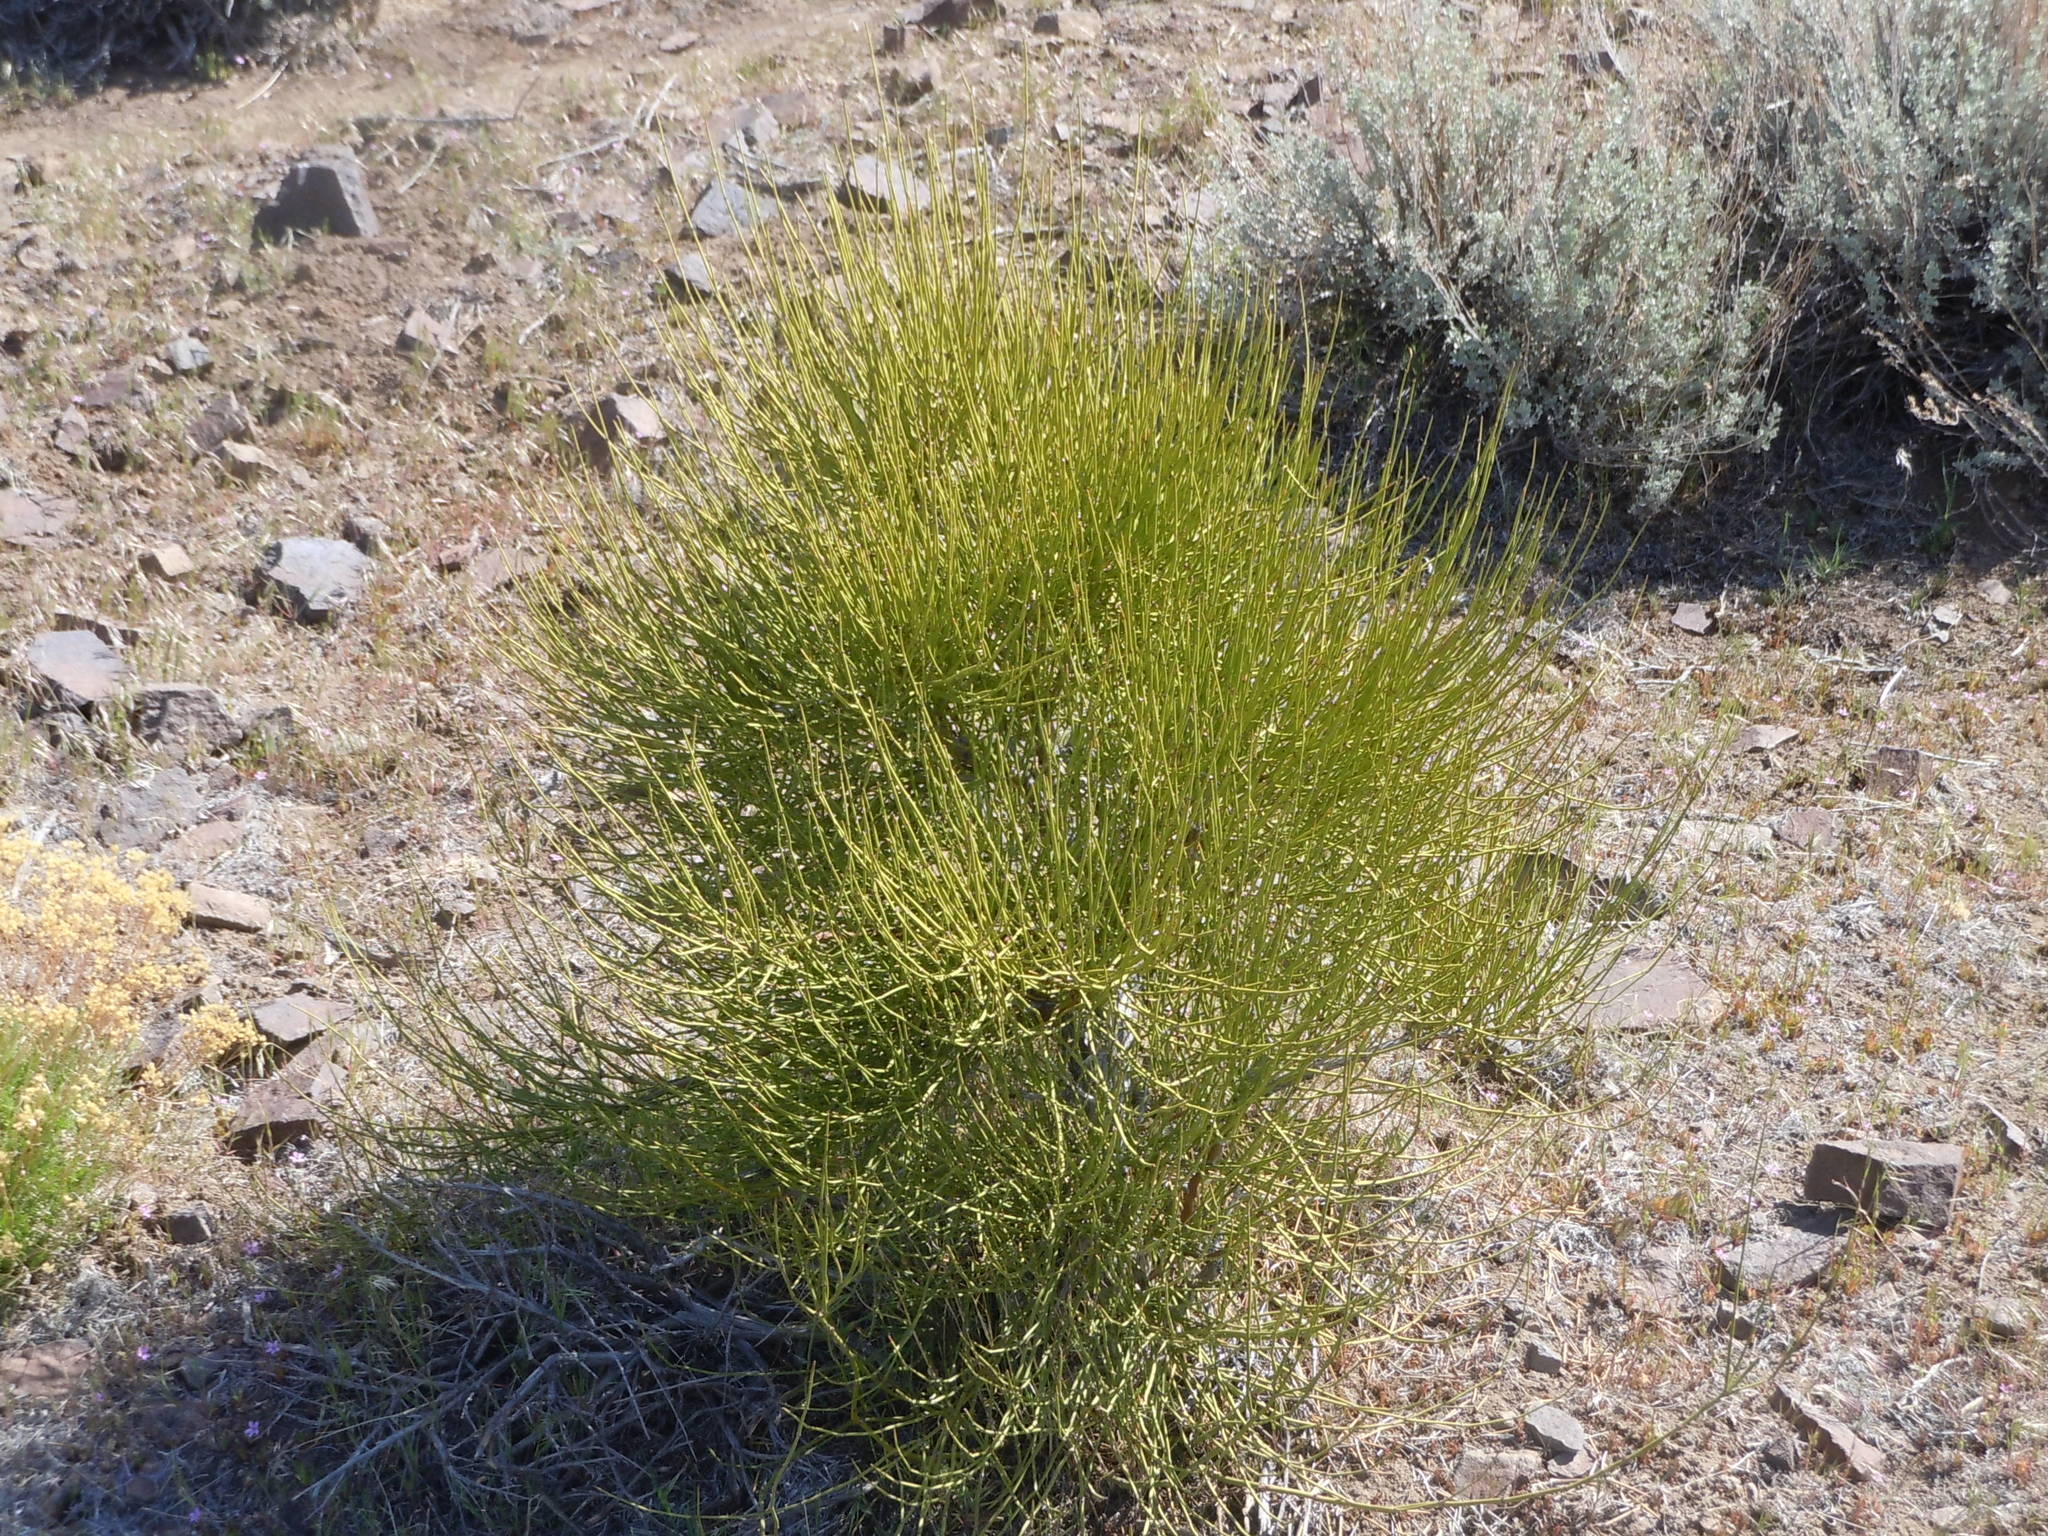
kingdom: Plantae
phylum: Tracheophyta
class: Gnetopsida
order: Ephedrales
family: Ephedraceae
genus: Ephedra
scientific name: Ephedra viridis
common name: Green ephedra
